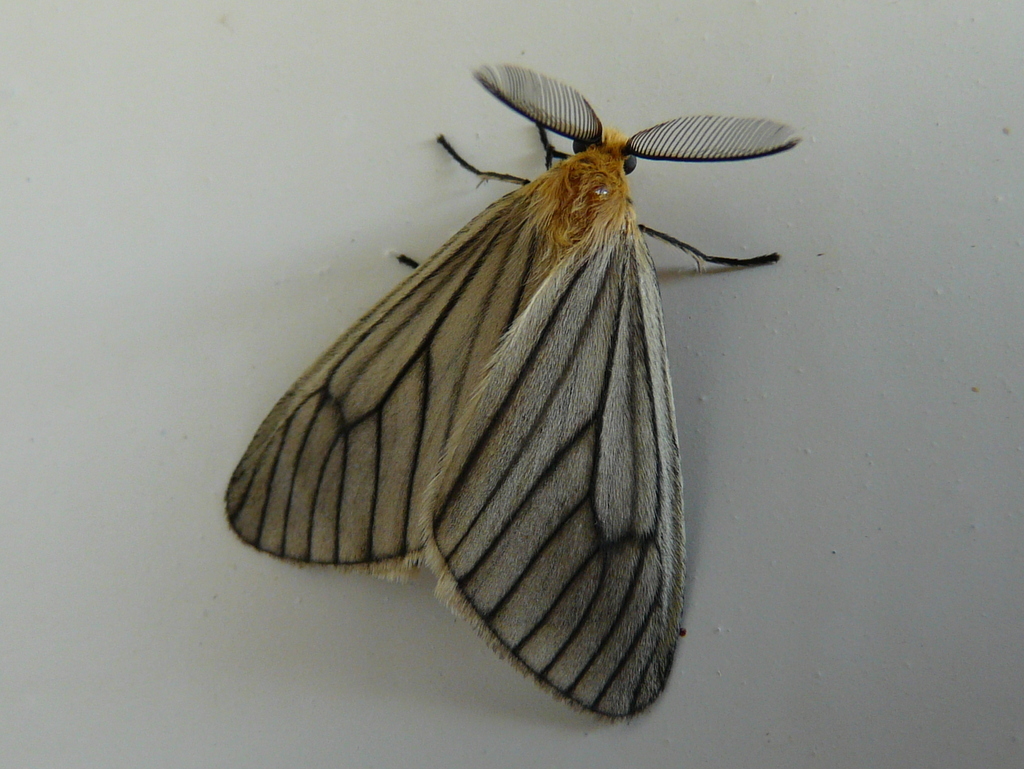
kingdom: Animalia
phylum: Arthropoda
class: Insecta
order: Lepidoptera
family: Eupterotidae
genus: Hibrildes
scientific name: Hibrildes crawshayi
